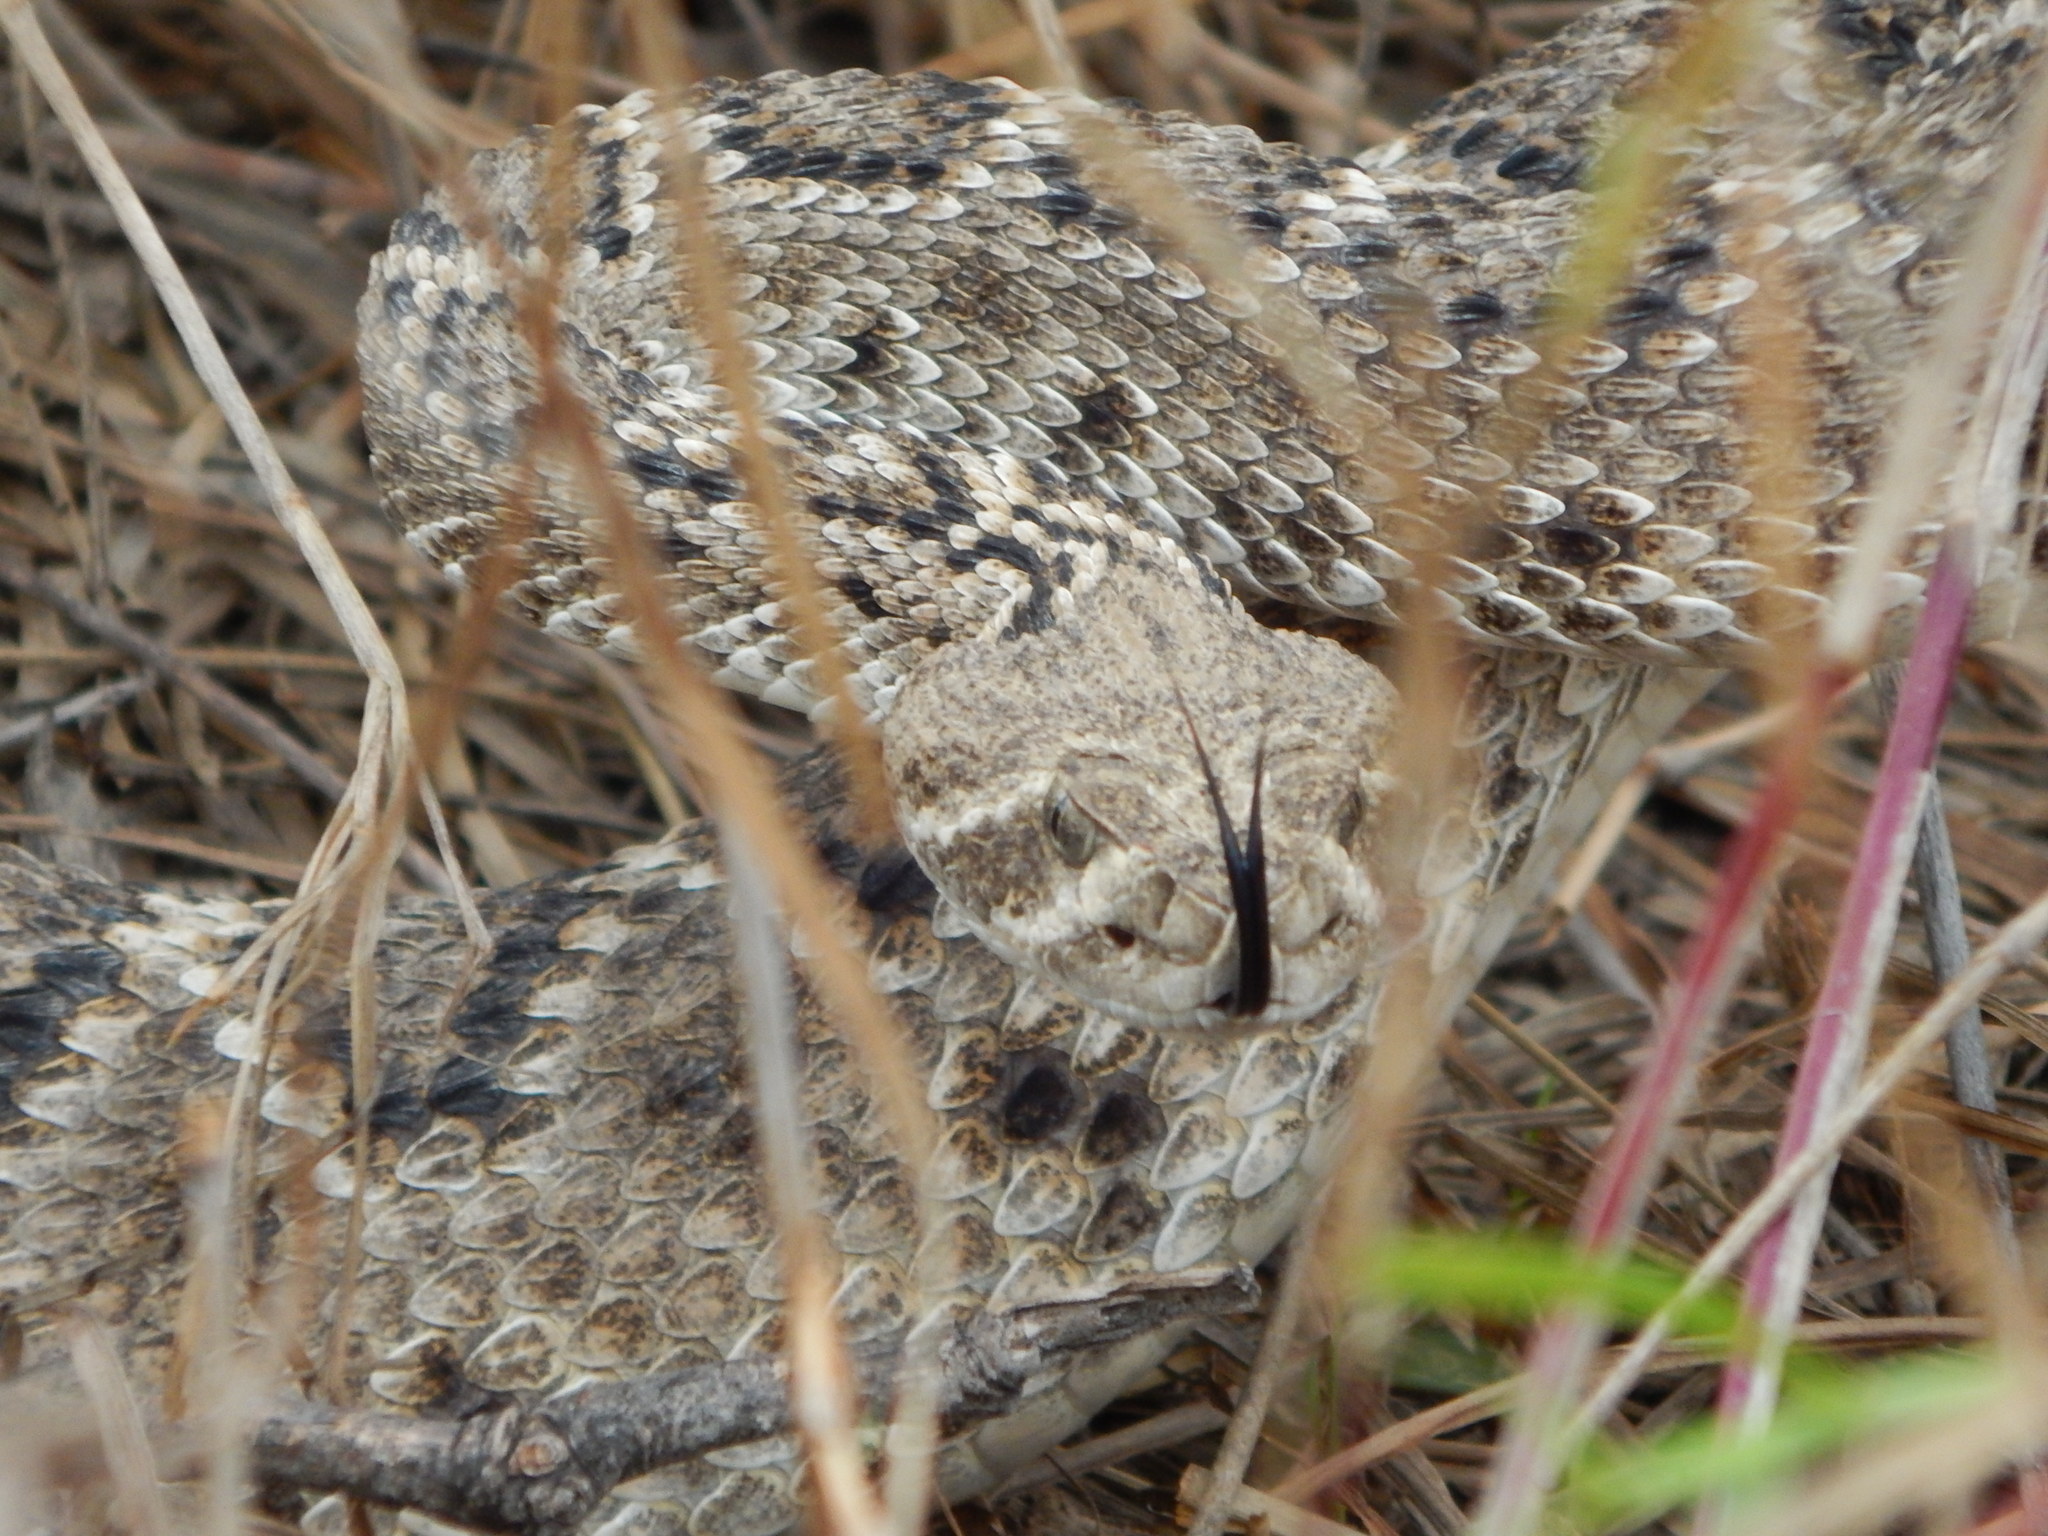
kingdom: Animalia
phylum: Chordata
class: Squamata
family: Viperidae
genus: Crotalus
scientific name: Crotalus atrox
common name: Western diamond-backed rattlesnake
